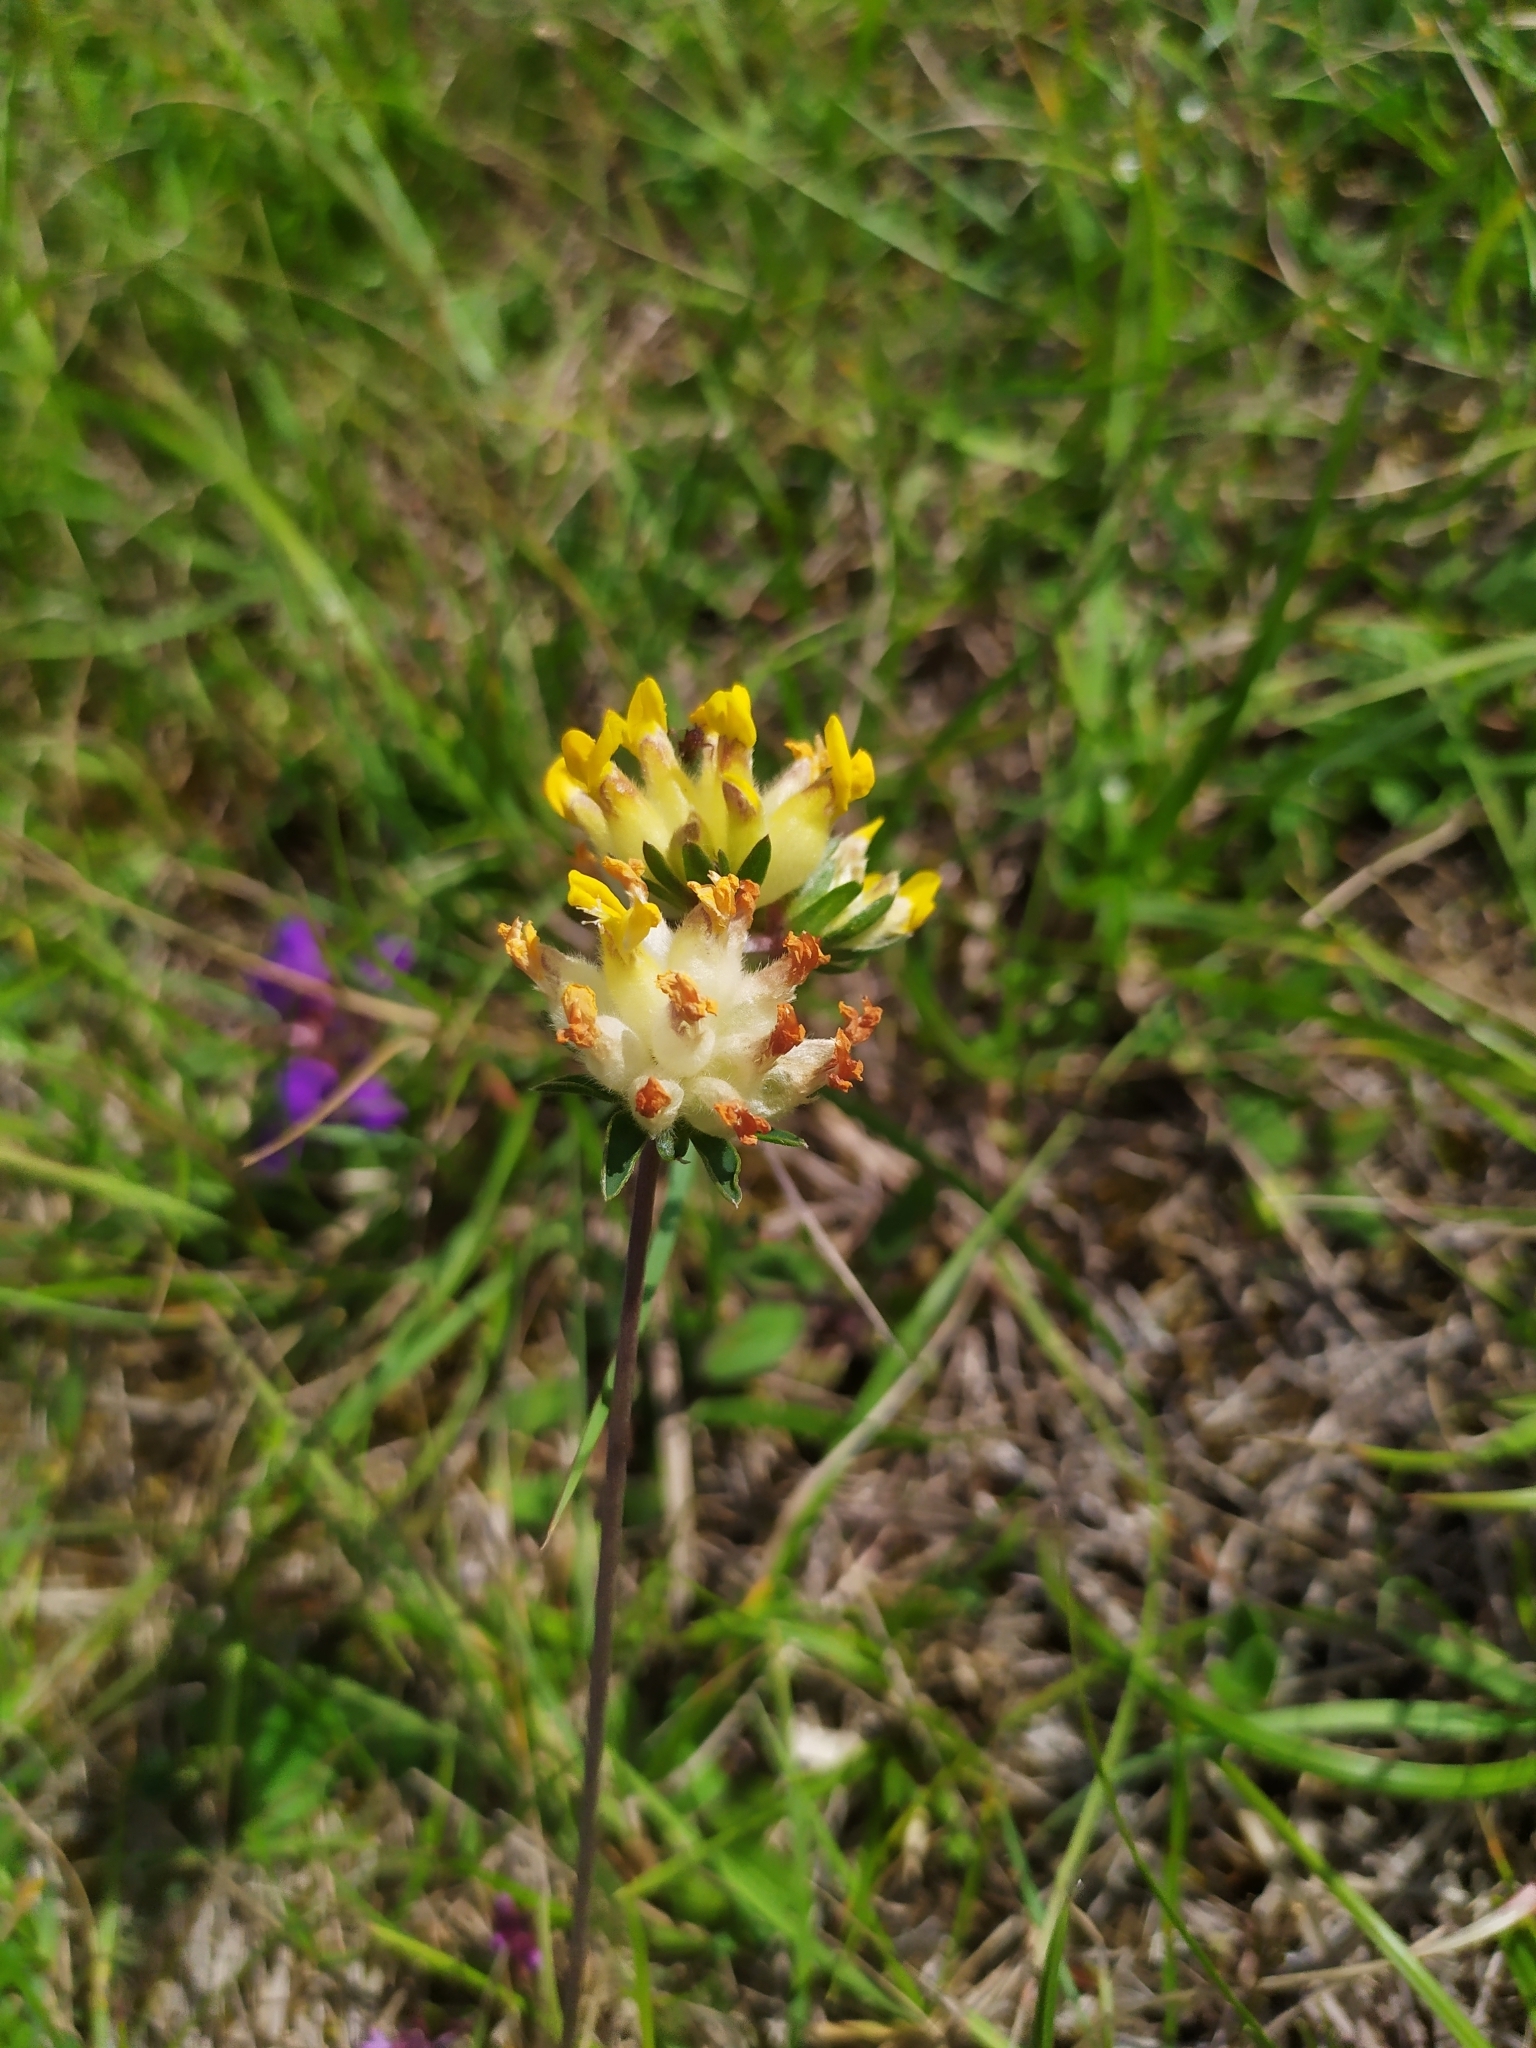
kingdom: Plantae
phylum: Tracheophyta
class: Magnoliopsida
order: Fabales
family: Fabaceae
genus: Anthyllis
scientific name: Anthyllis vulneraria
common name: Kidney vetch
